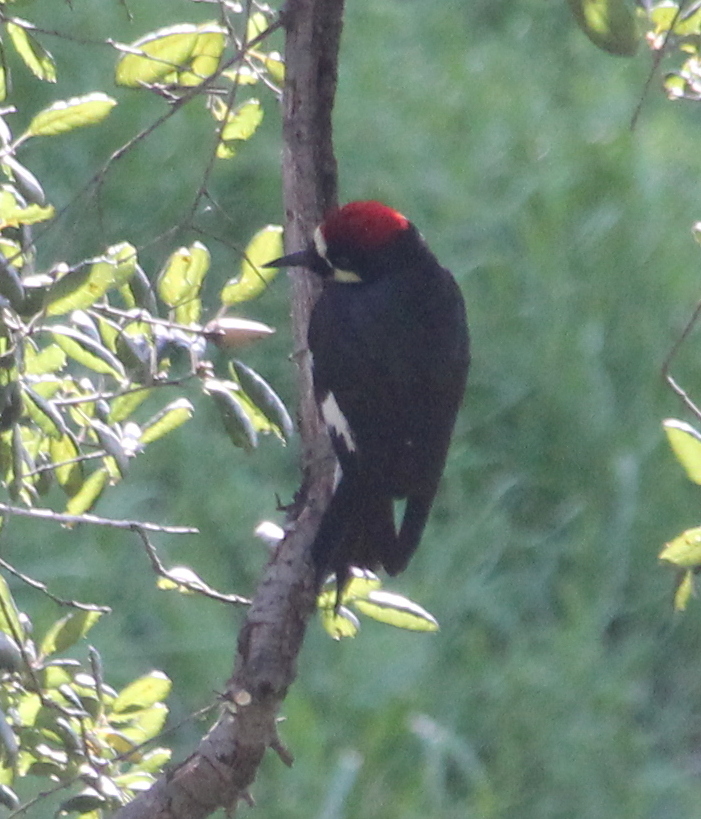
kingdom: Animalia
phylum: Chordata
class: Aves
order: Piciformes
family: Picidae
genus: Melanerpes
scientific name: Melanerpes formicivorus
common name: Acorn woodpecker
